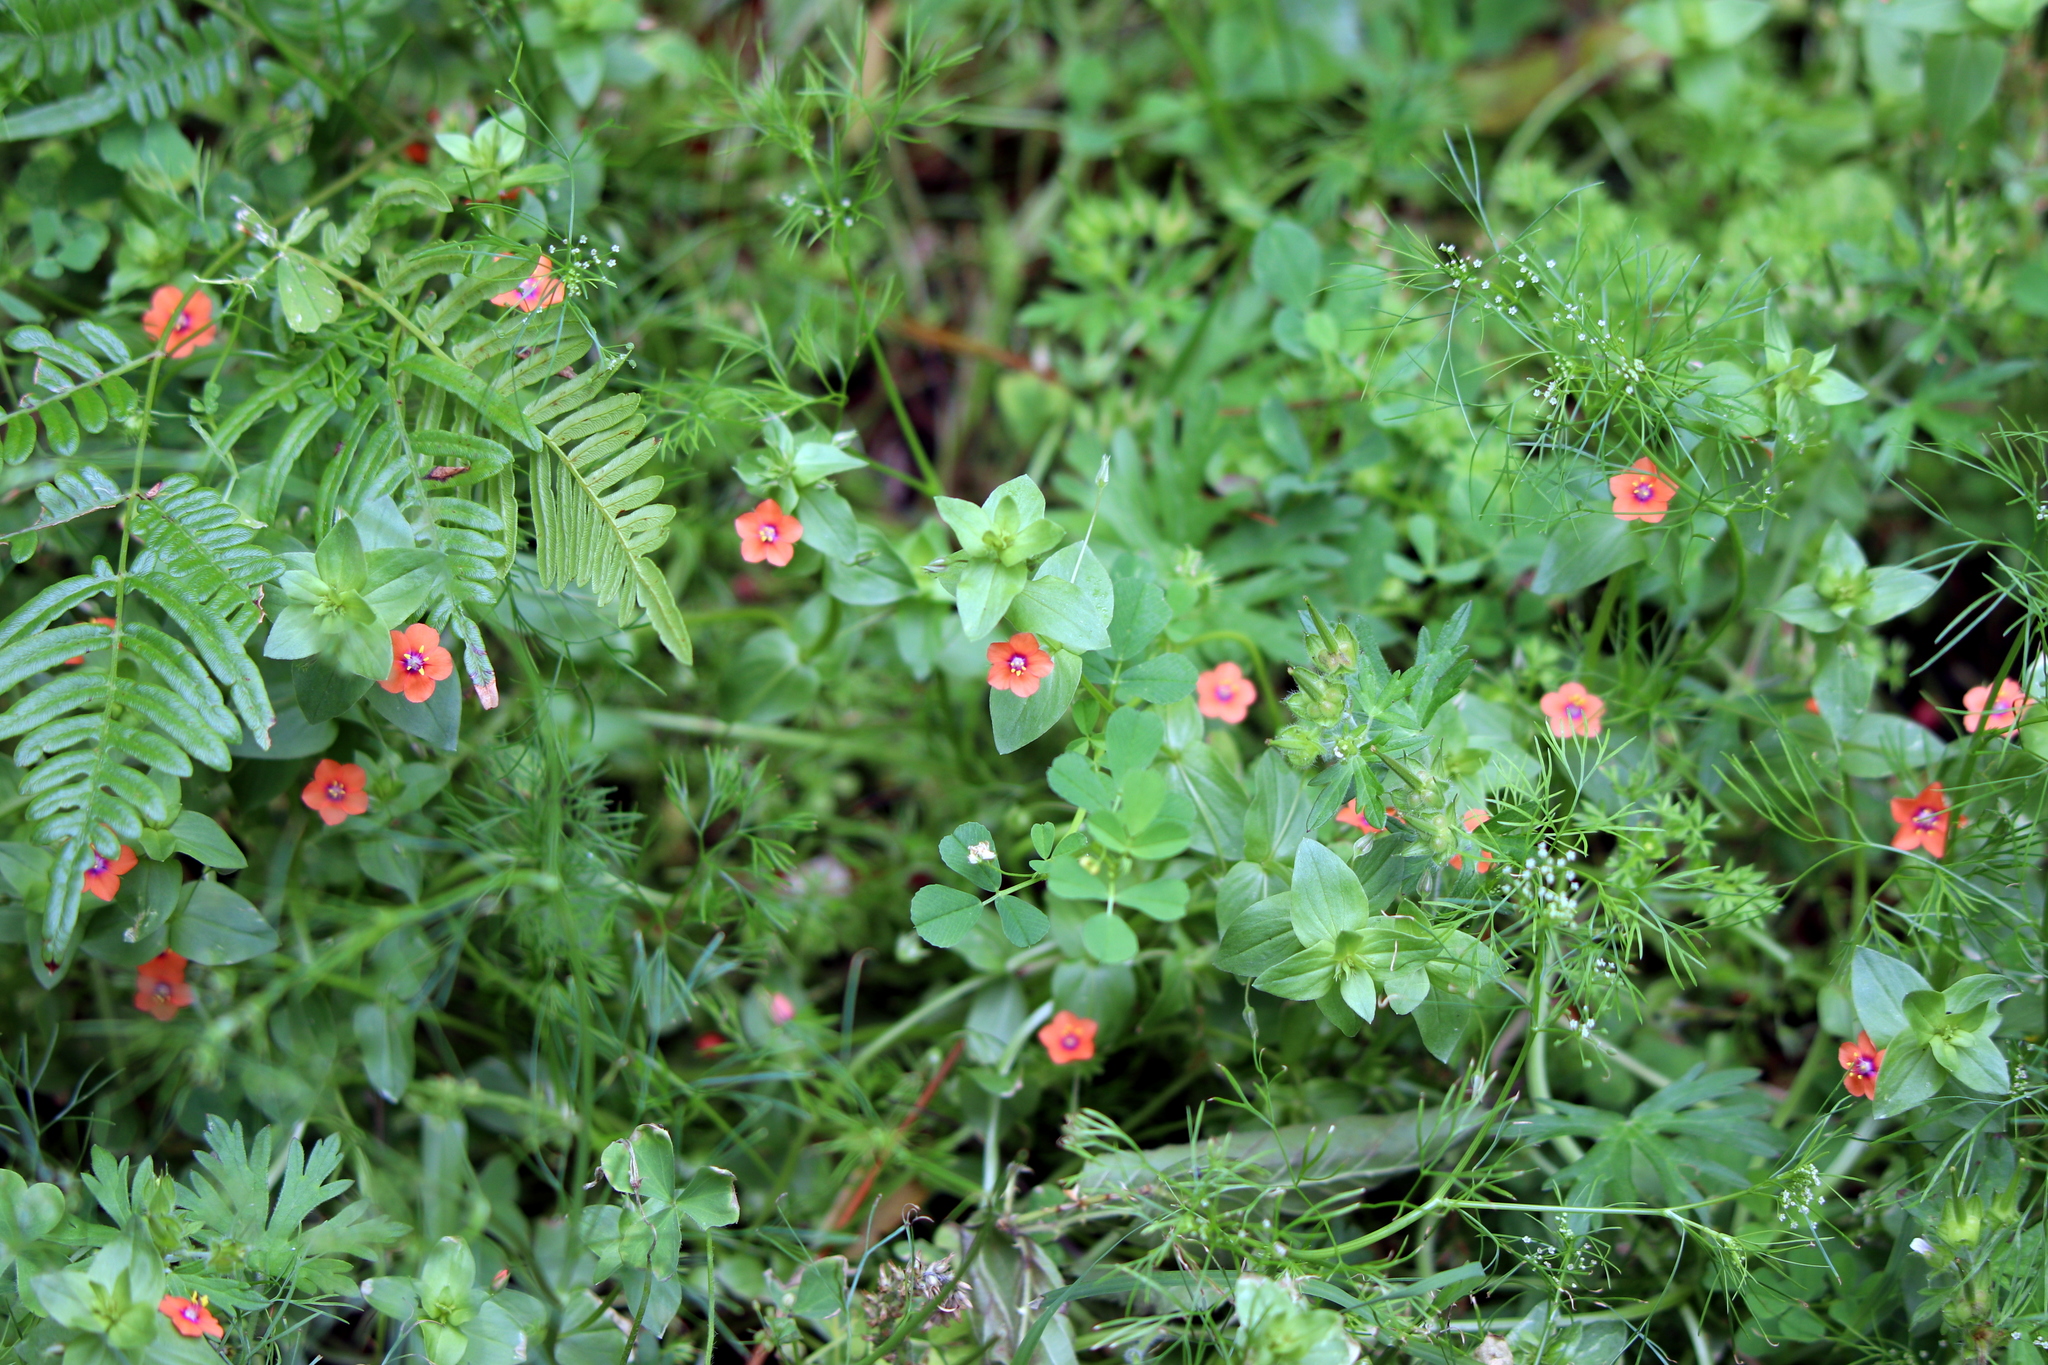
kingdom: Plantae
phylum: Tracheophyta
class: Magnoliopsida
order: Ericales
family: Primulaceae
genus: Lysimachia
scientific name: Lysimachia arvensis
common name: Scarlet pimpernel
